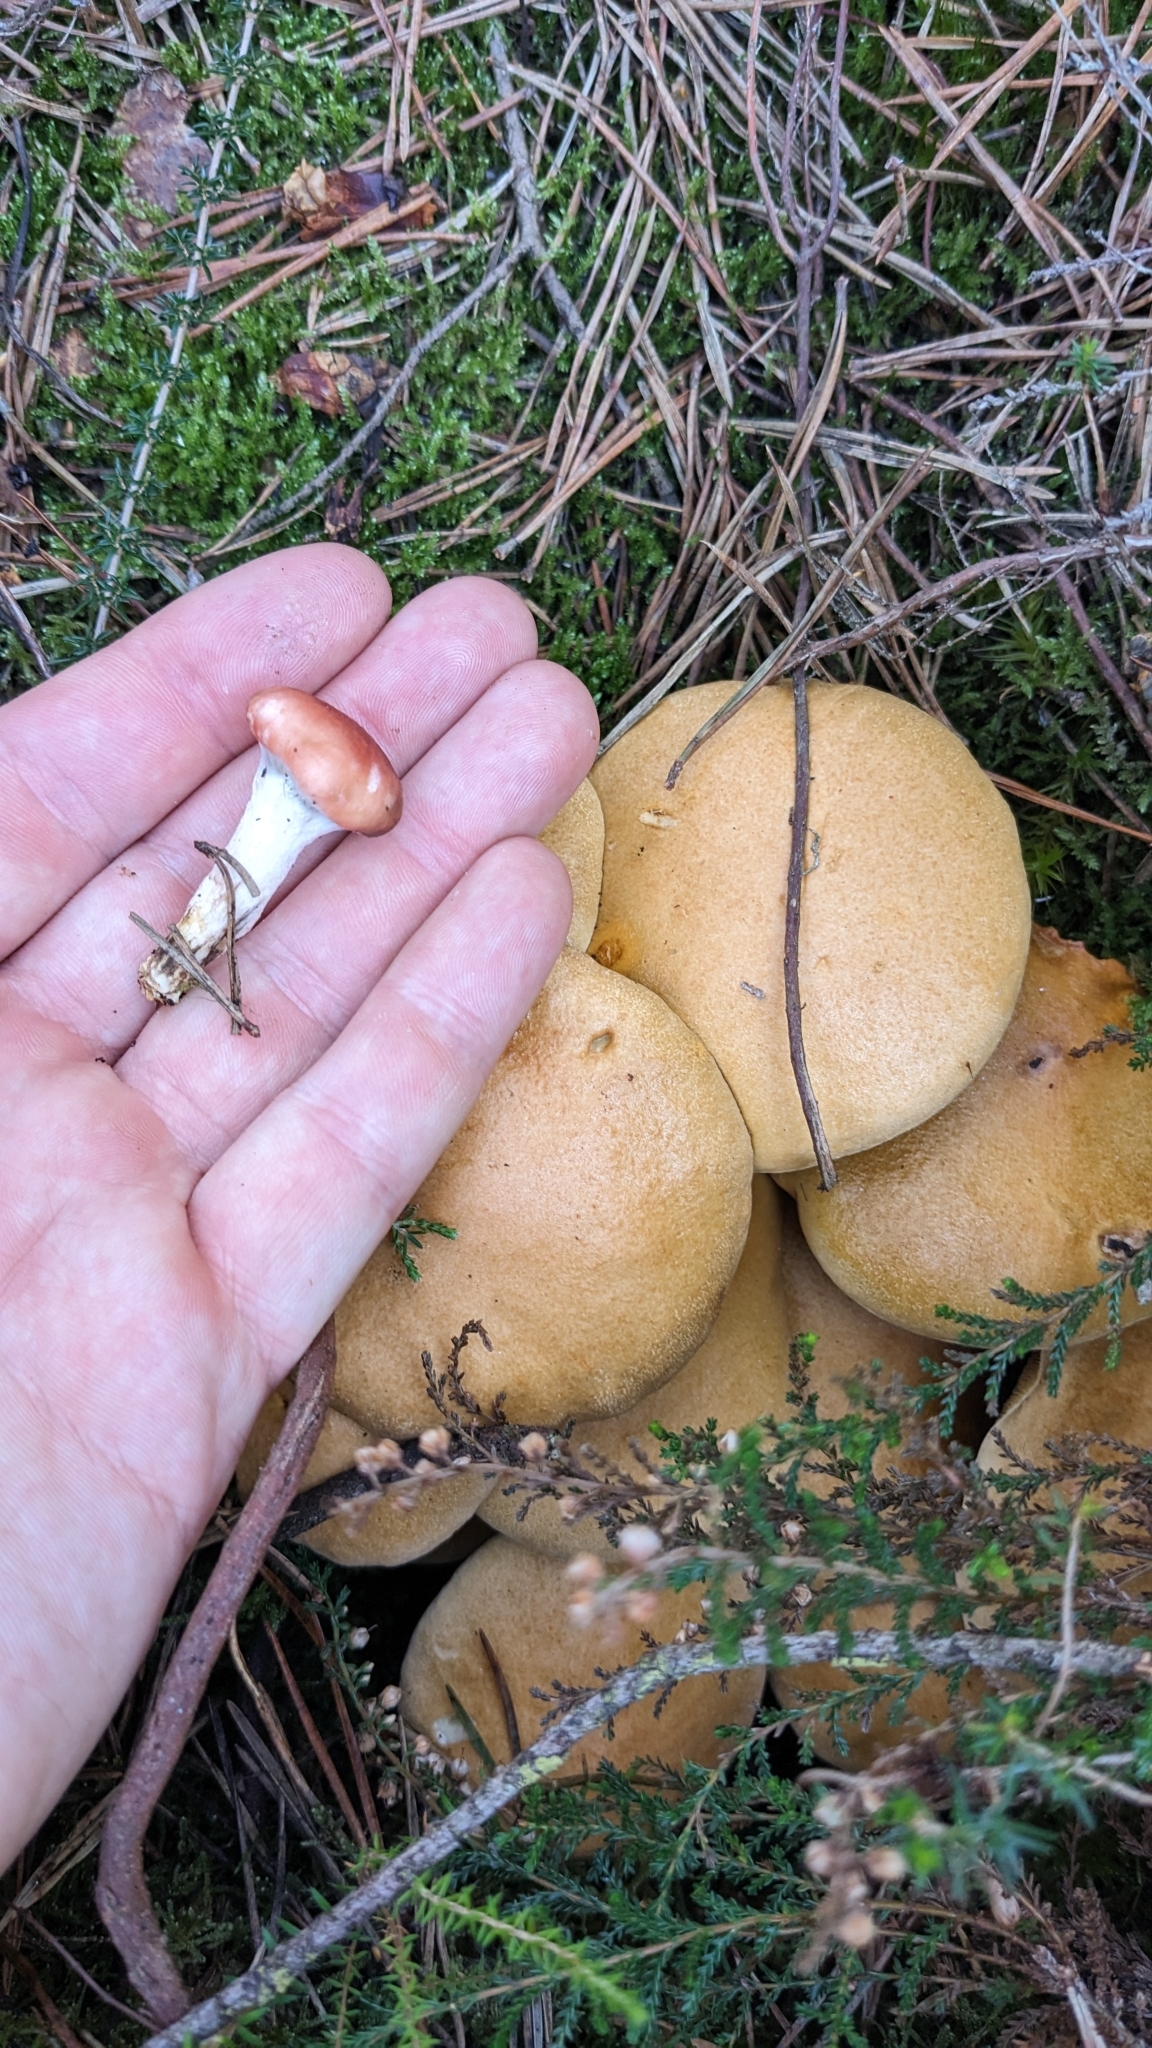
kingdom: Fungi
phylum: Basidiomycota
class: Agaricomycetes
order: Boletales
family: Suillaceae
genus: Suillus
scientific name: Suillus bovinus
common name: Bovine bolete
